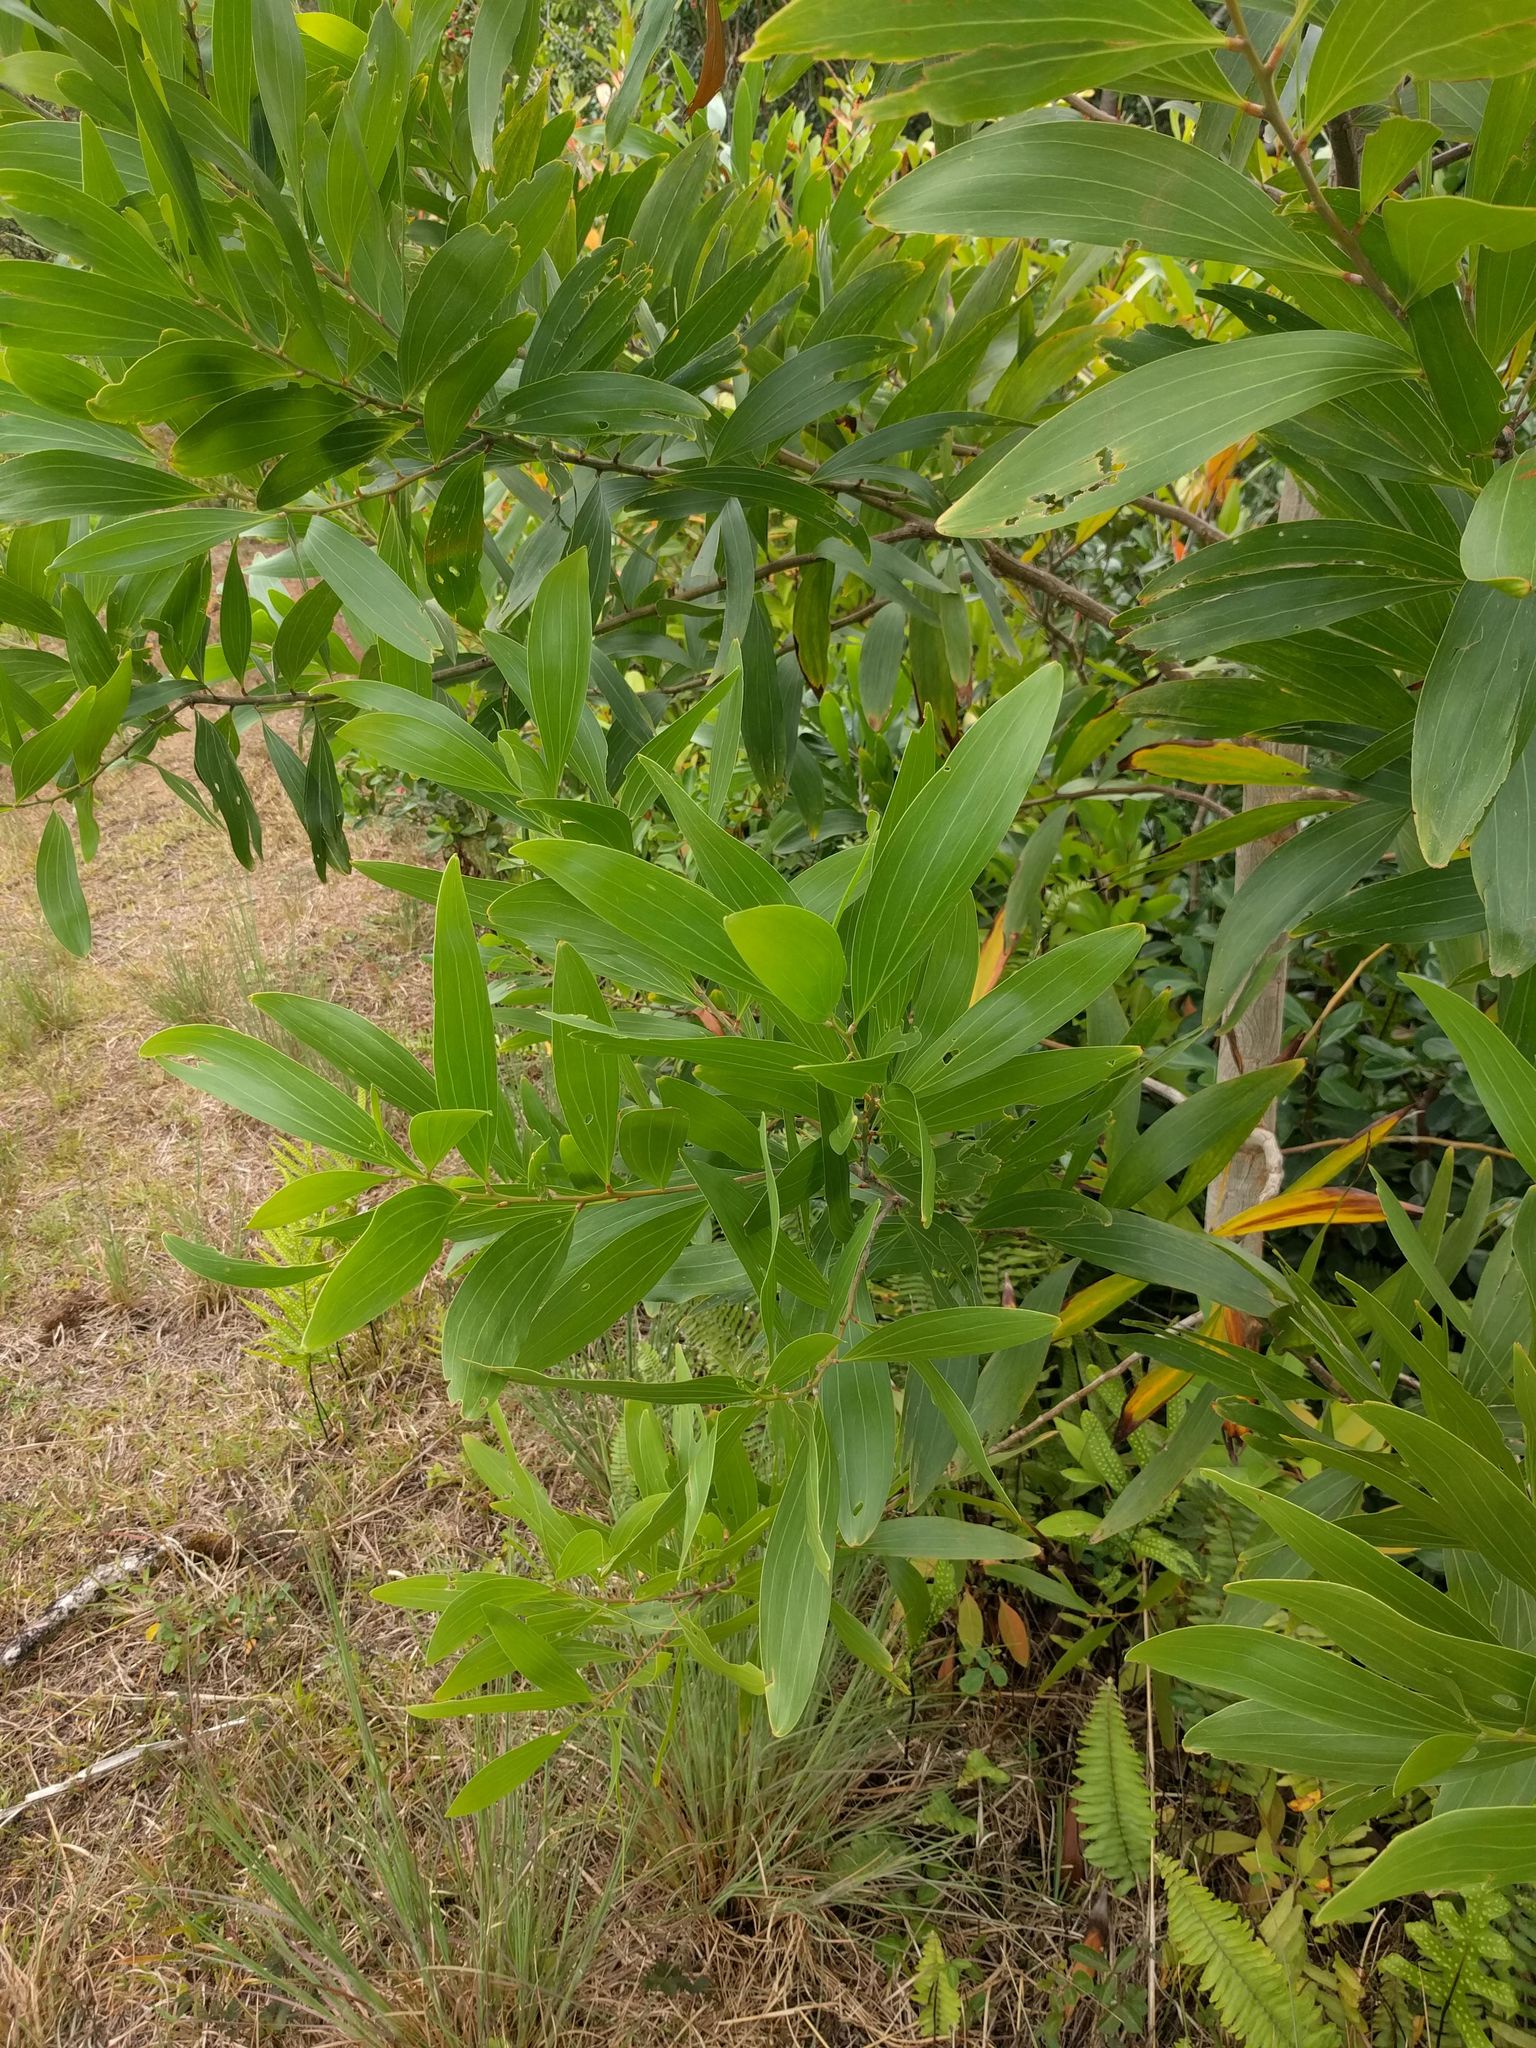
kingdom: Plantae
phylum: Tracheophyta
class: Magnoliopsida
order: Fabales
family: Fabaceae
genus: Acacia
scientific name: Acacia mangium
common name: Black wattle
